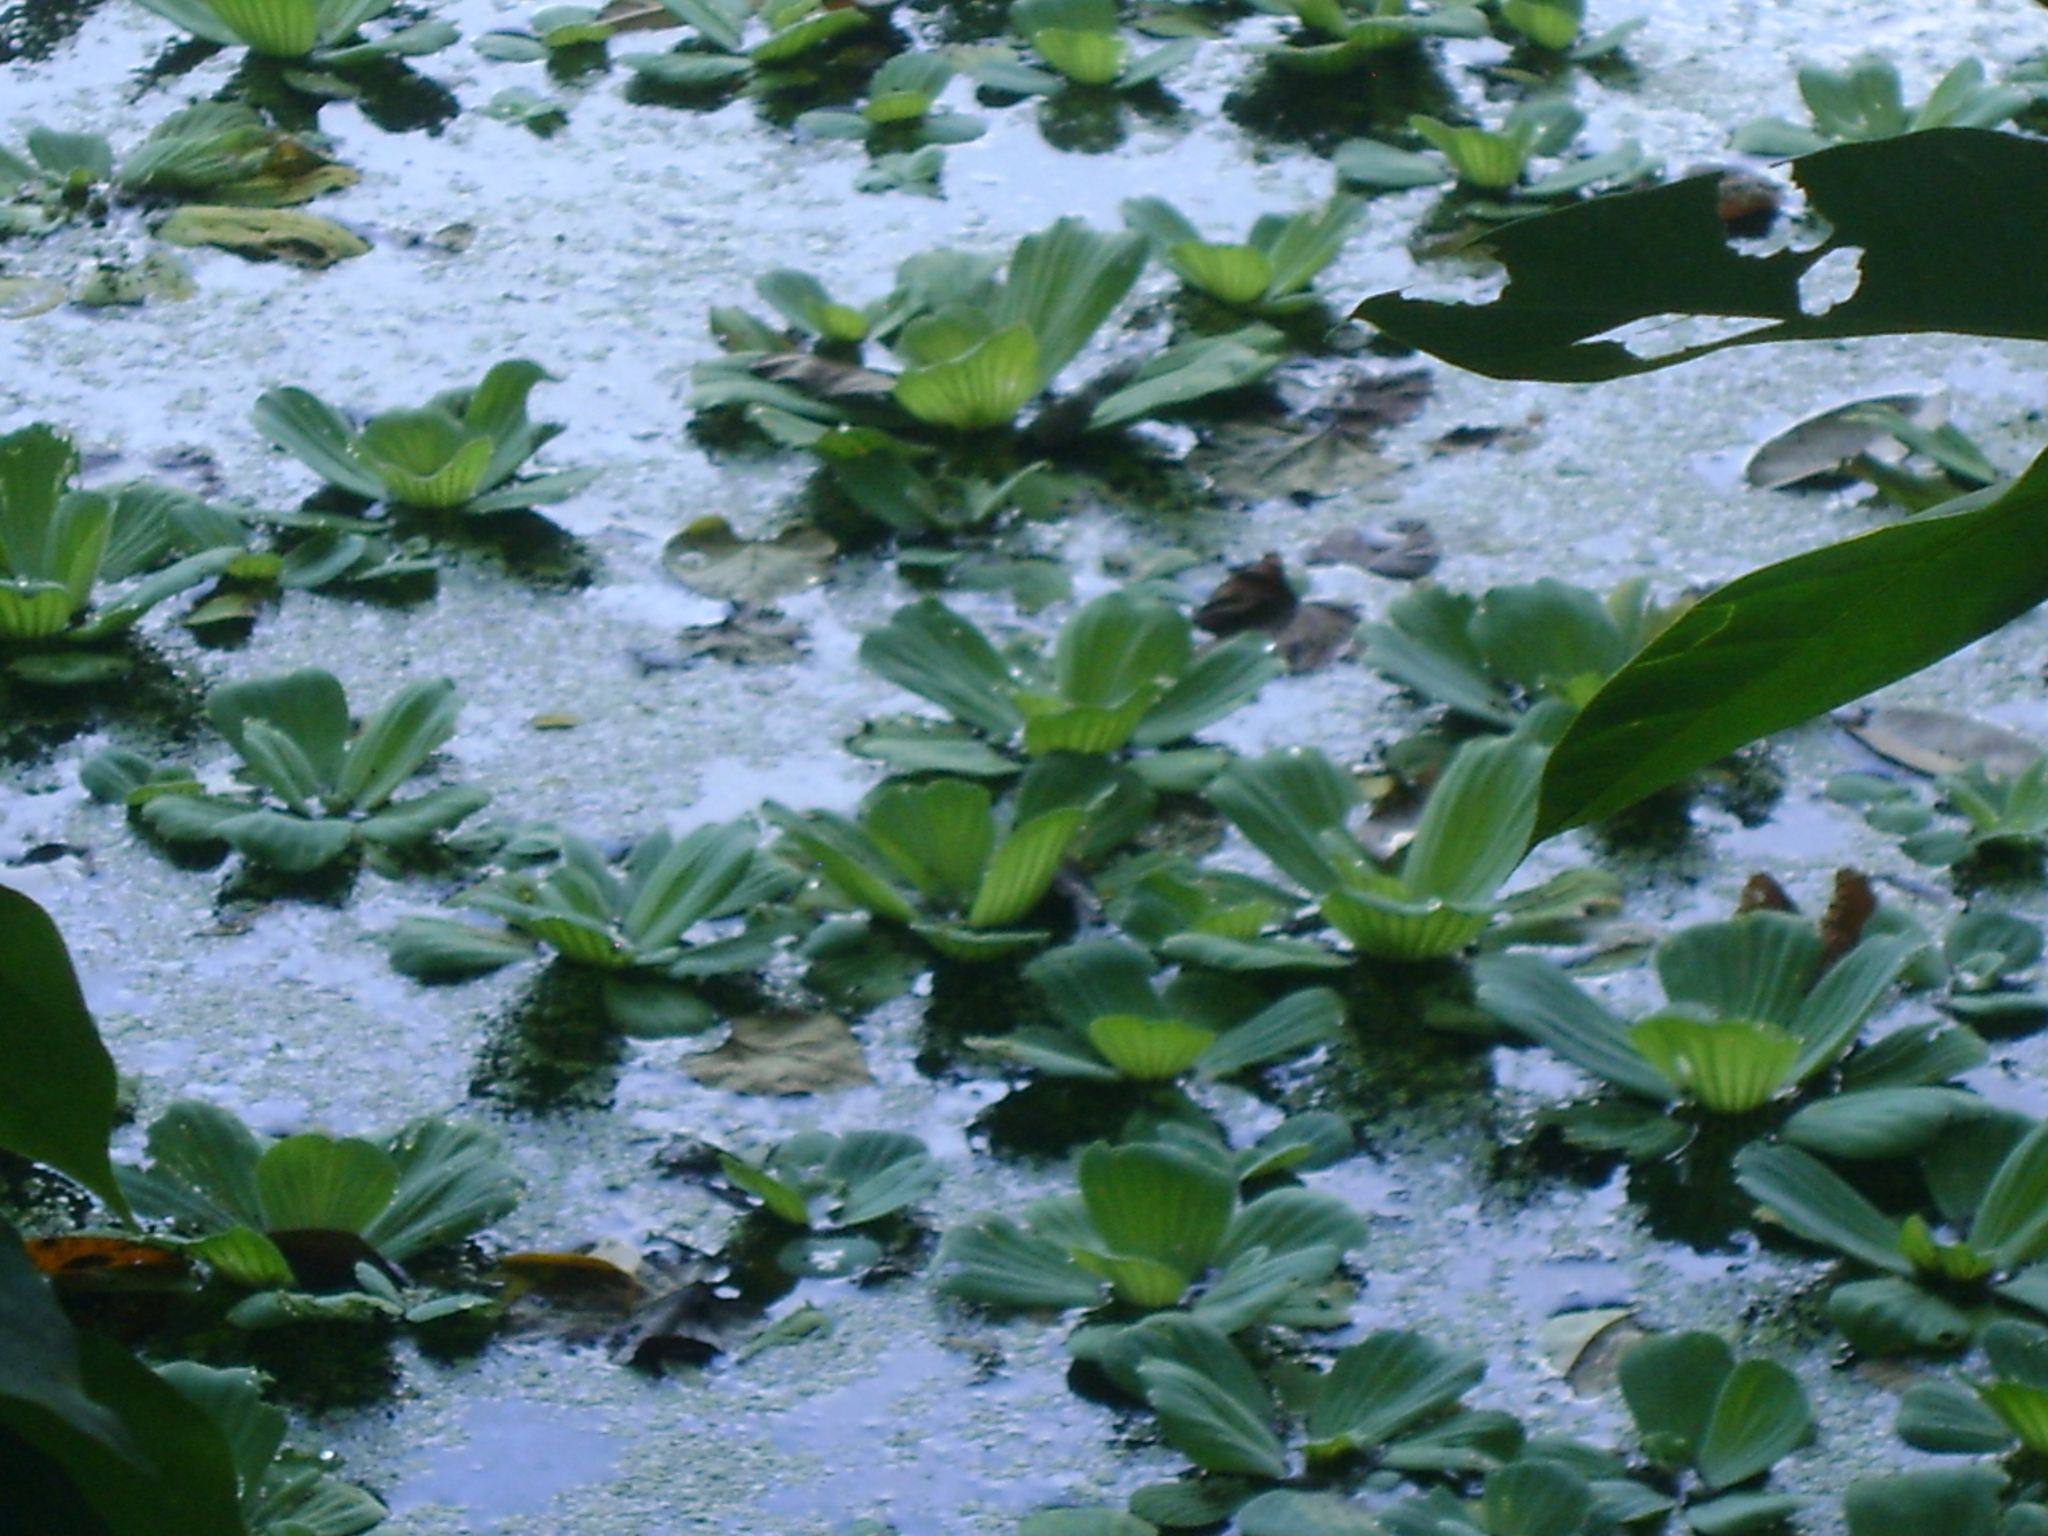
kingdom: Plantae
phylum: Tracheophyta
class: Liliopsida
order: Alismatales
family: Araceae
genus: Pistia
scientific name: Pistia stratiotes
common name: Water lettuce
